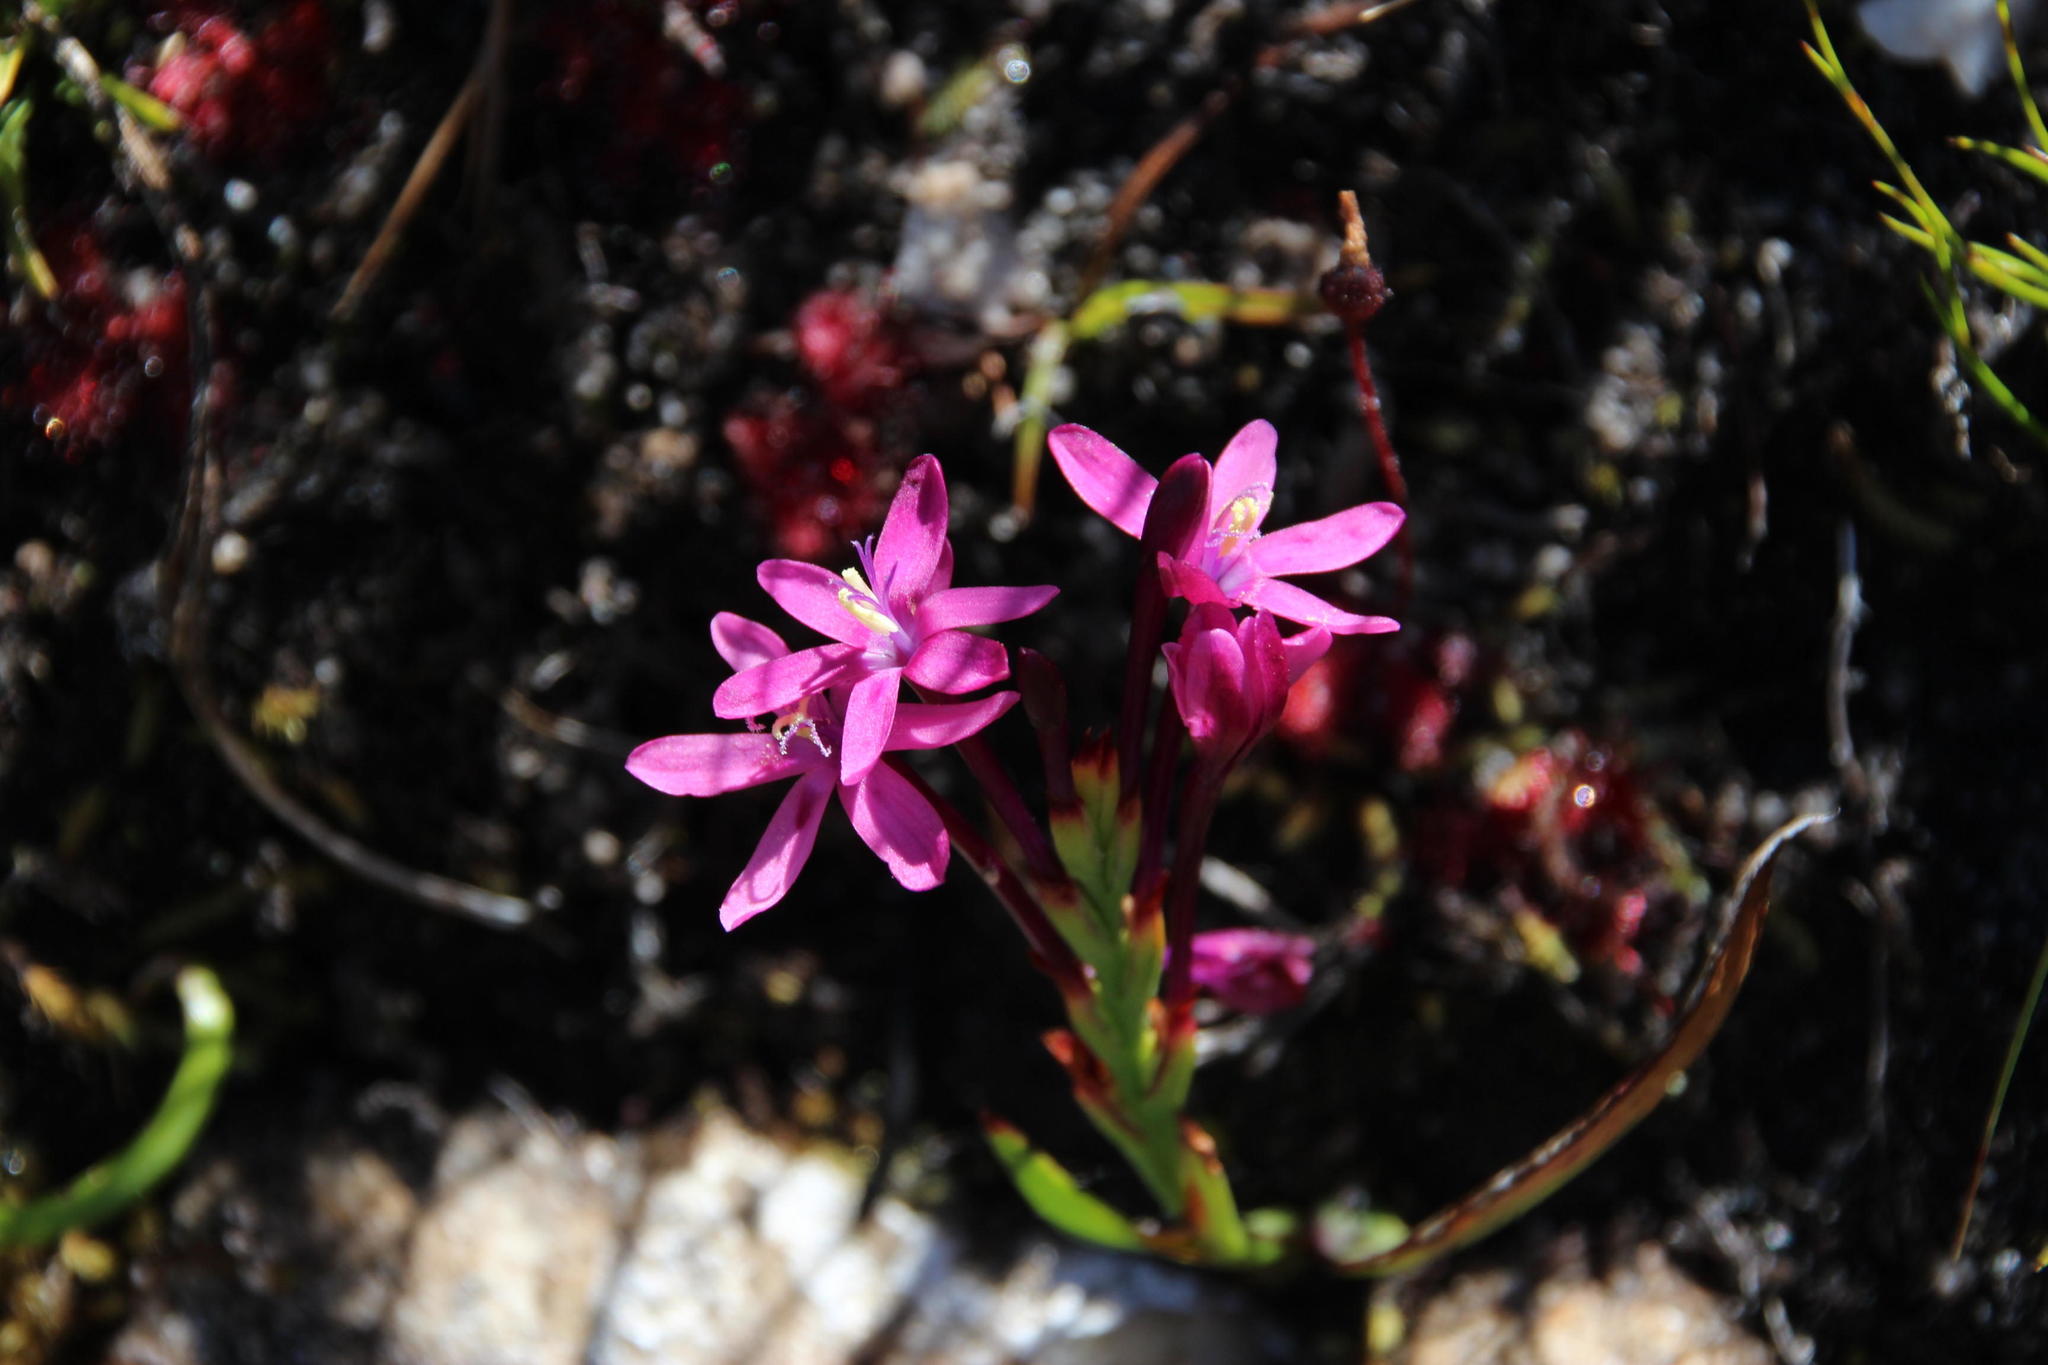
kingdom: Plantae
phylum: Tracheophyta
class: Liliopsida
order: Asparagales
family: Iridaceae
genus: Thereianthus
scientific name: Thereianthus minutus
